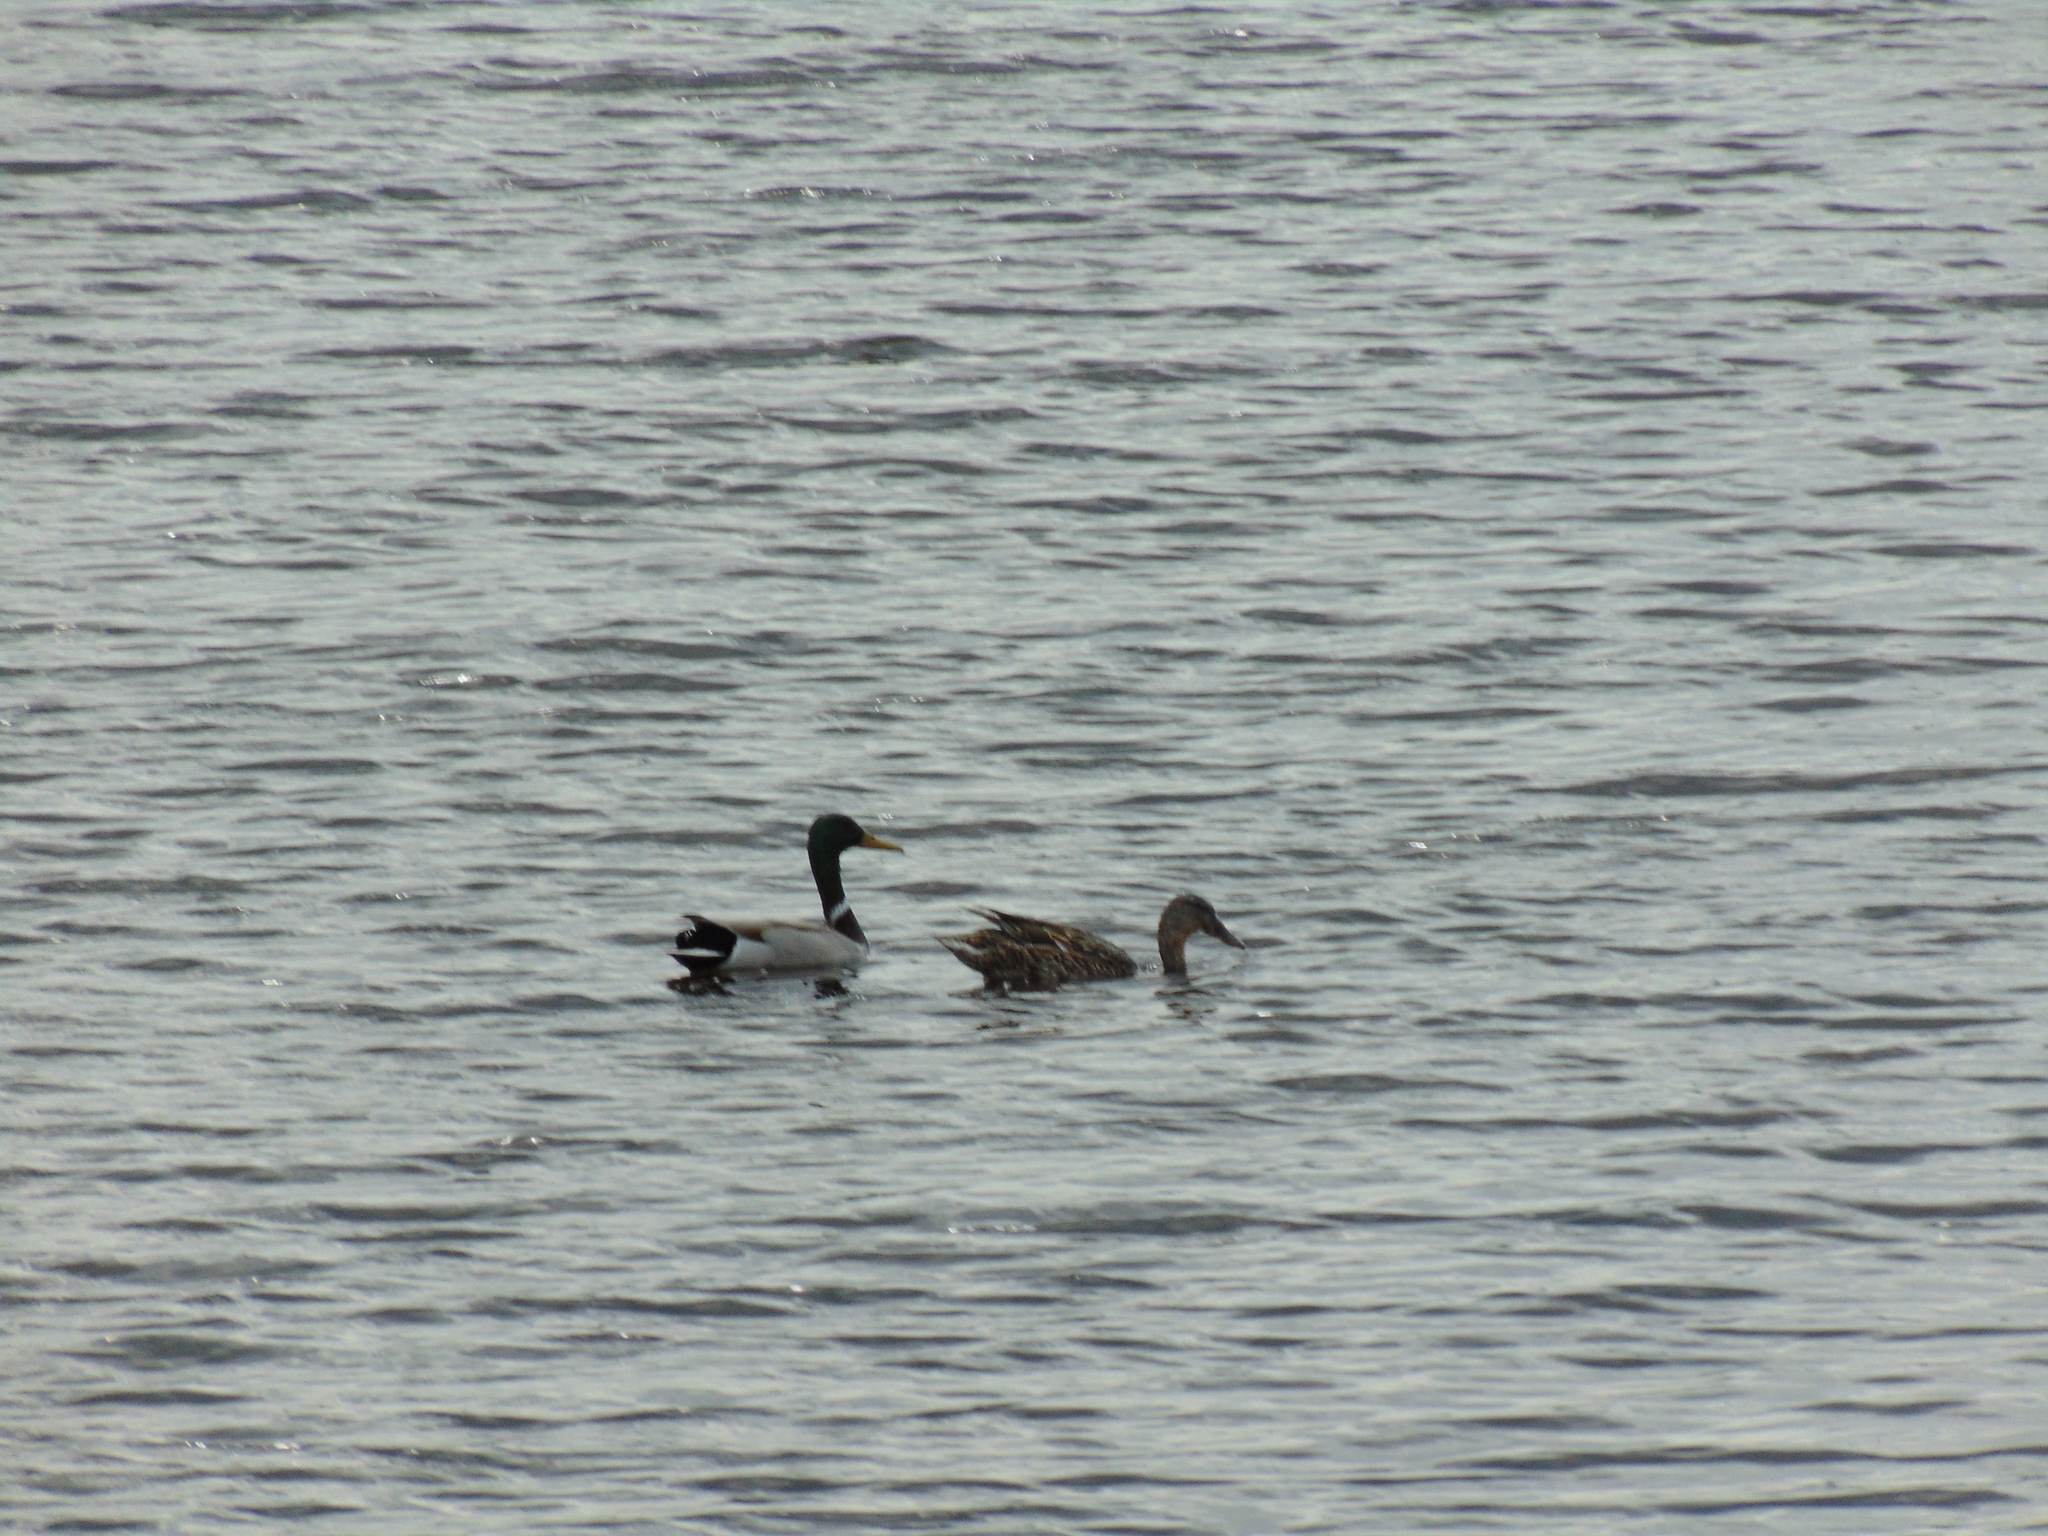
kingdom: Animalia
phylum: Chordata
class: Aves
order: Anseriformes
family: Anatidae
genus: Anas
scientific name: Anas platyrhynchos
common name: Mallard
